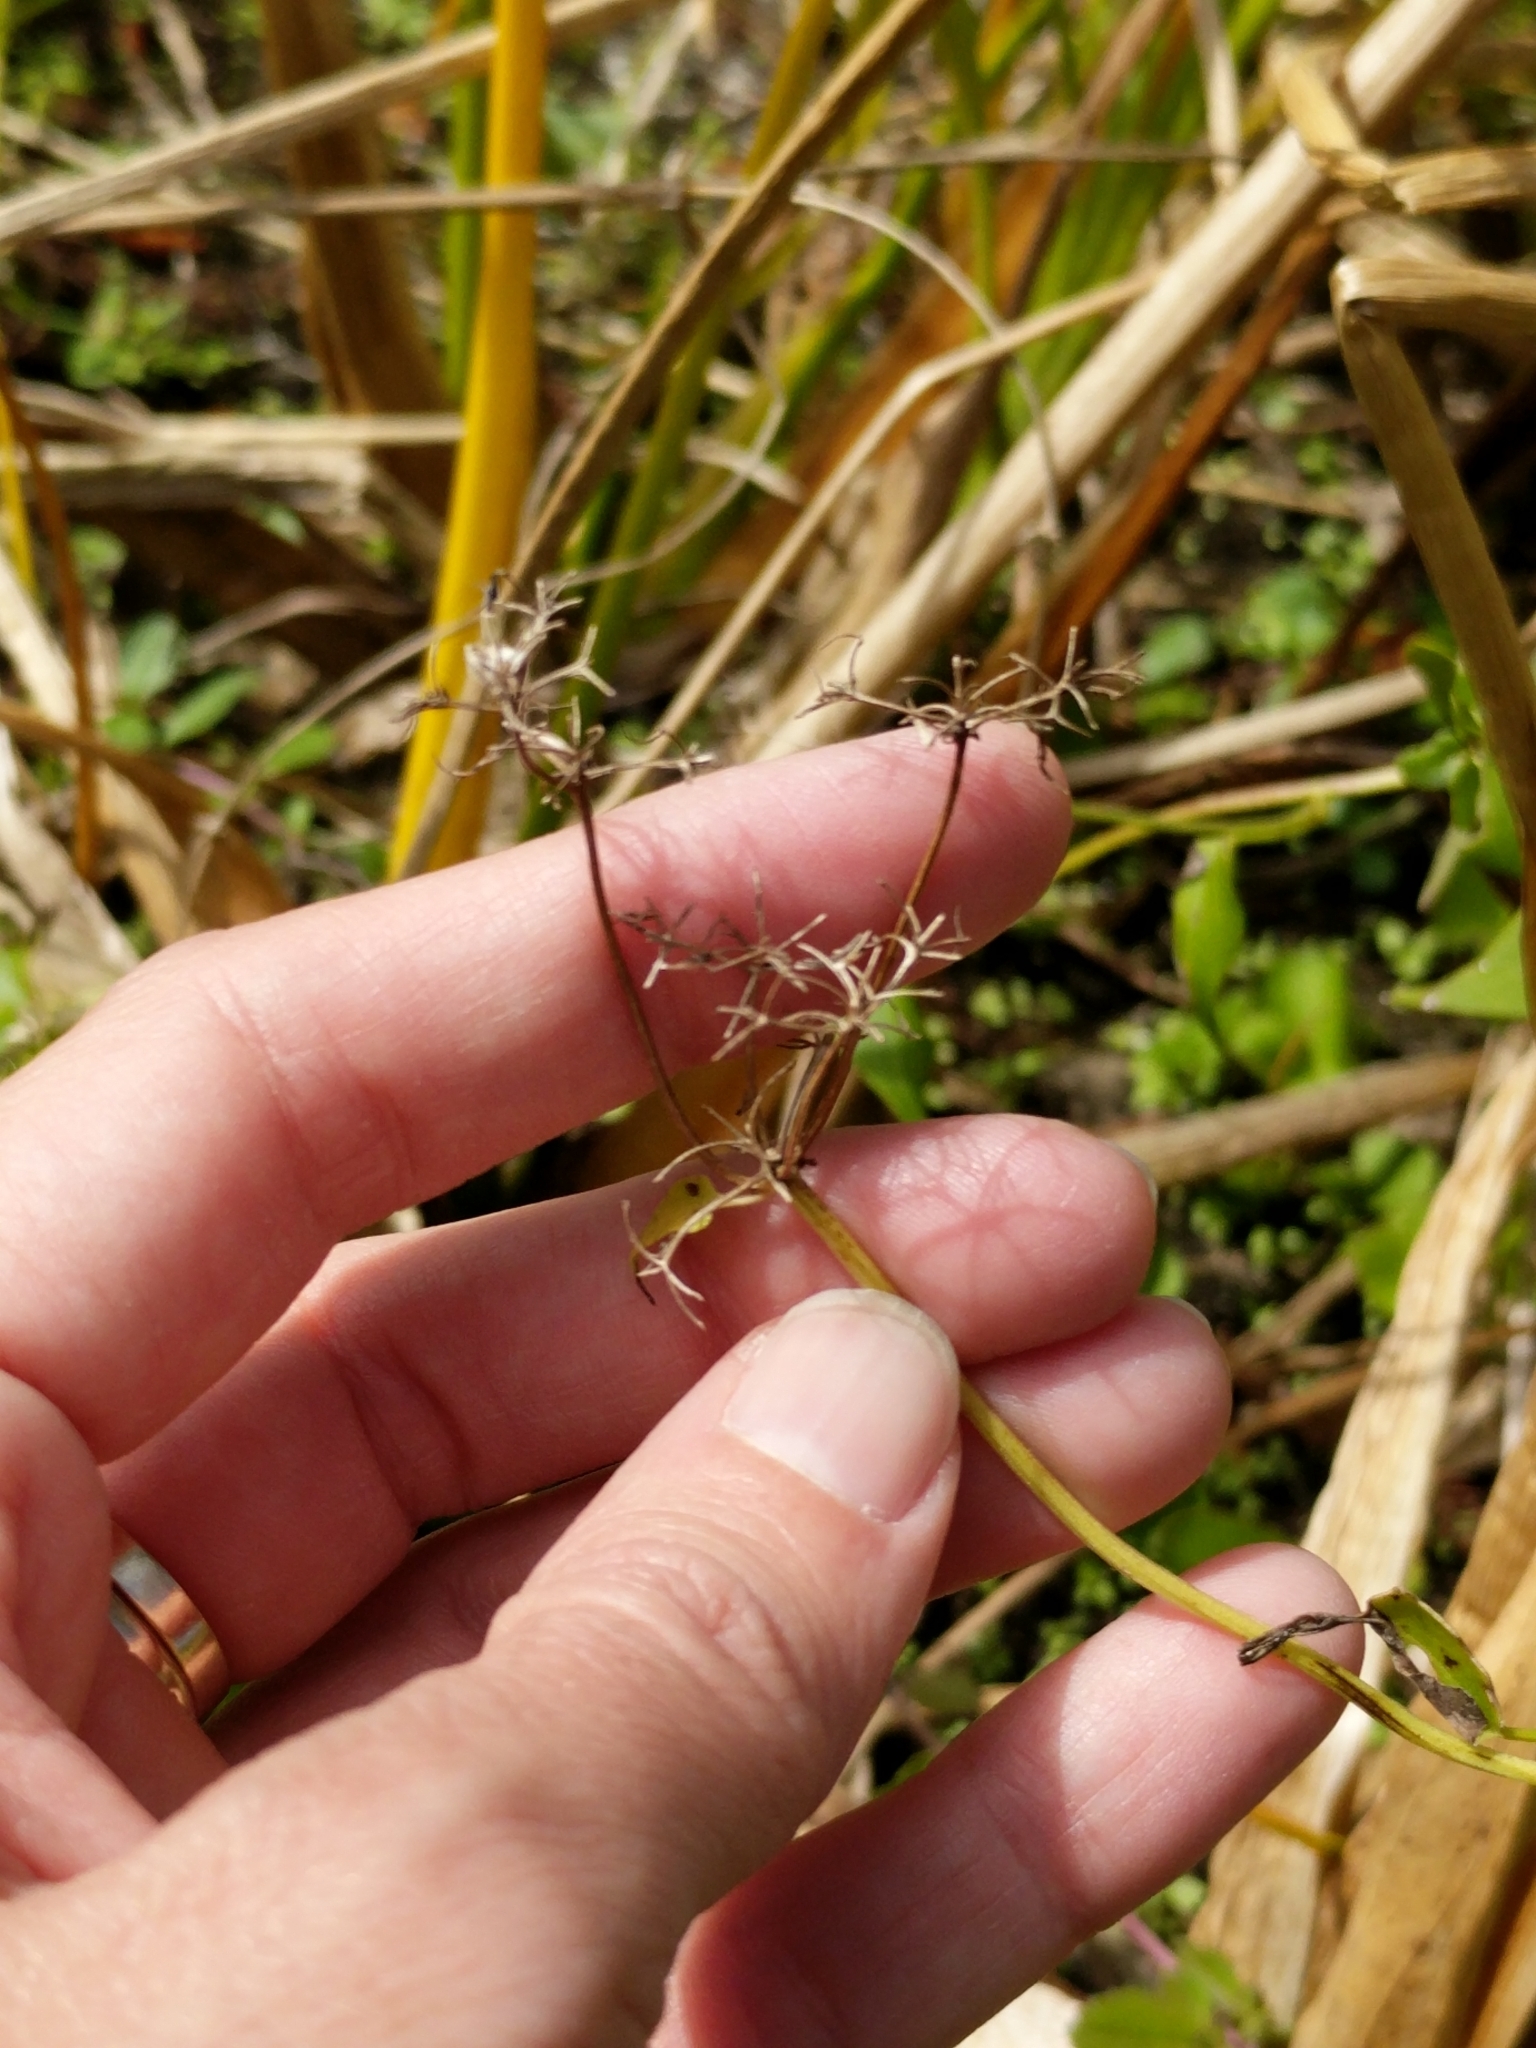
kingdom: Plantae
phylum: Tracheophyta
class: Magnoliopsida
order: Asterales
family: Asteraceae
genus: Mikania
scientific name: Mikania scandens
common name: Climbing hempvine
